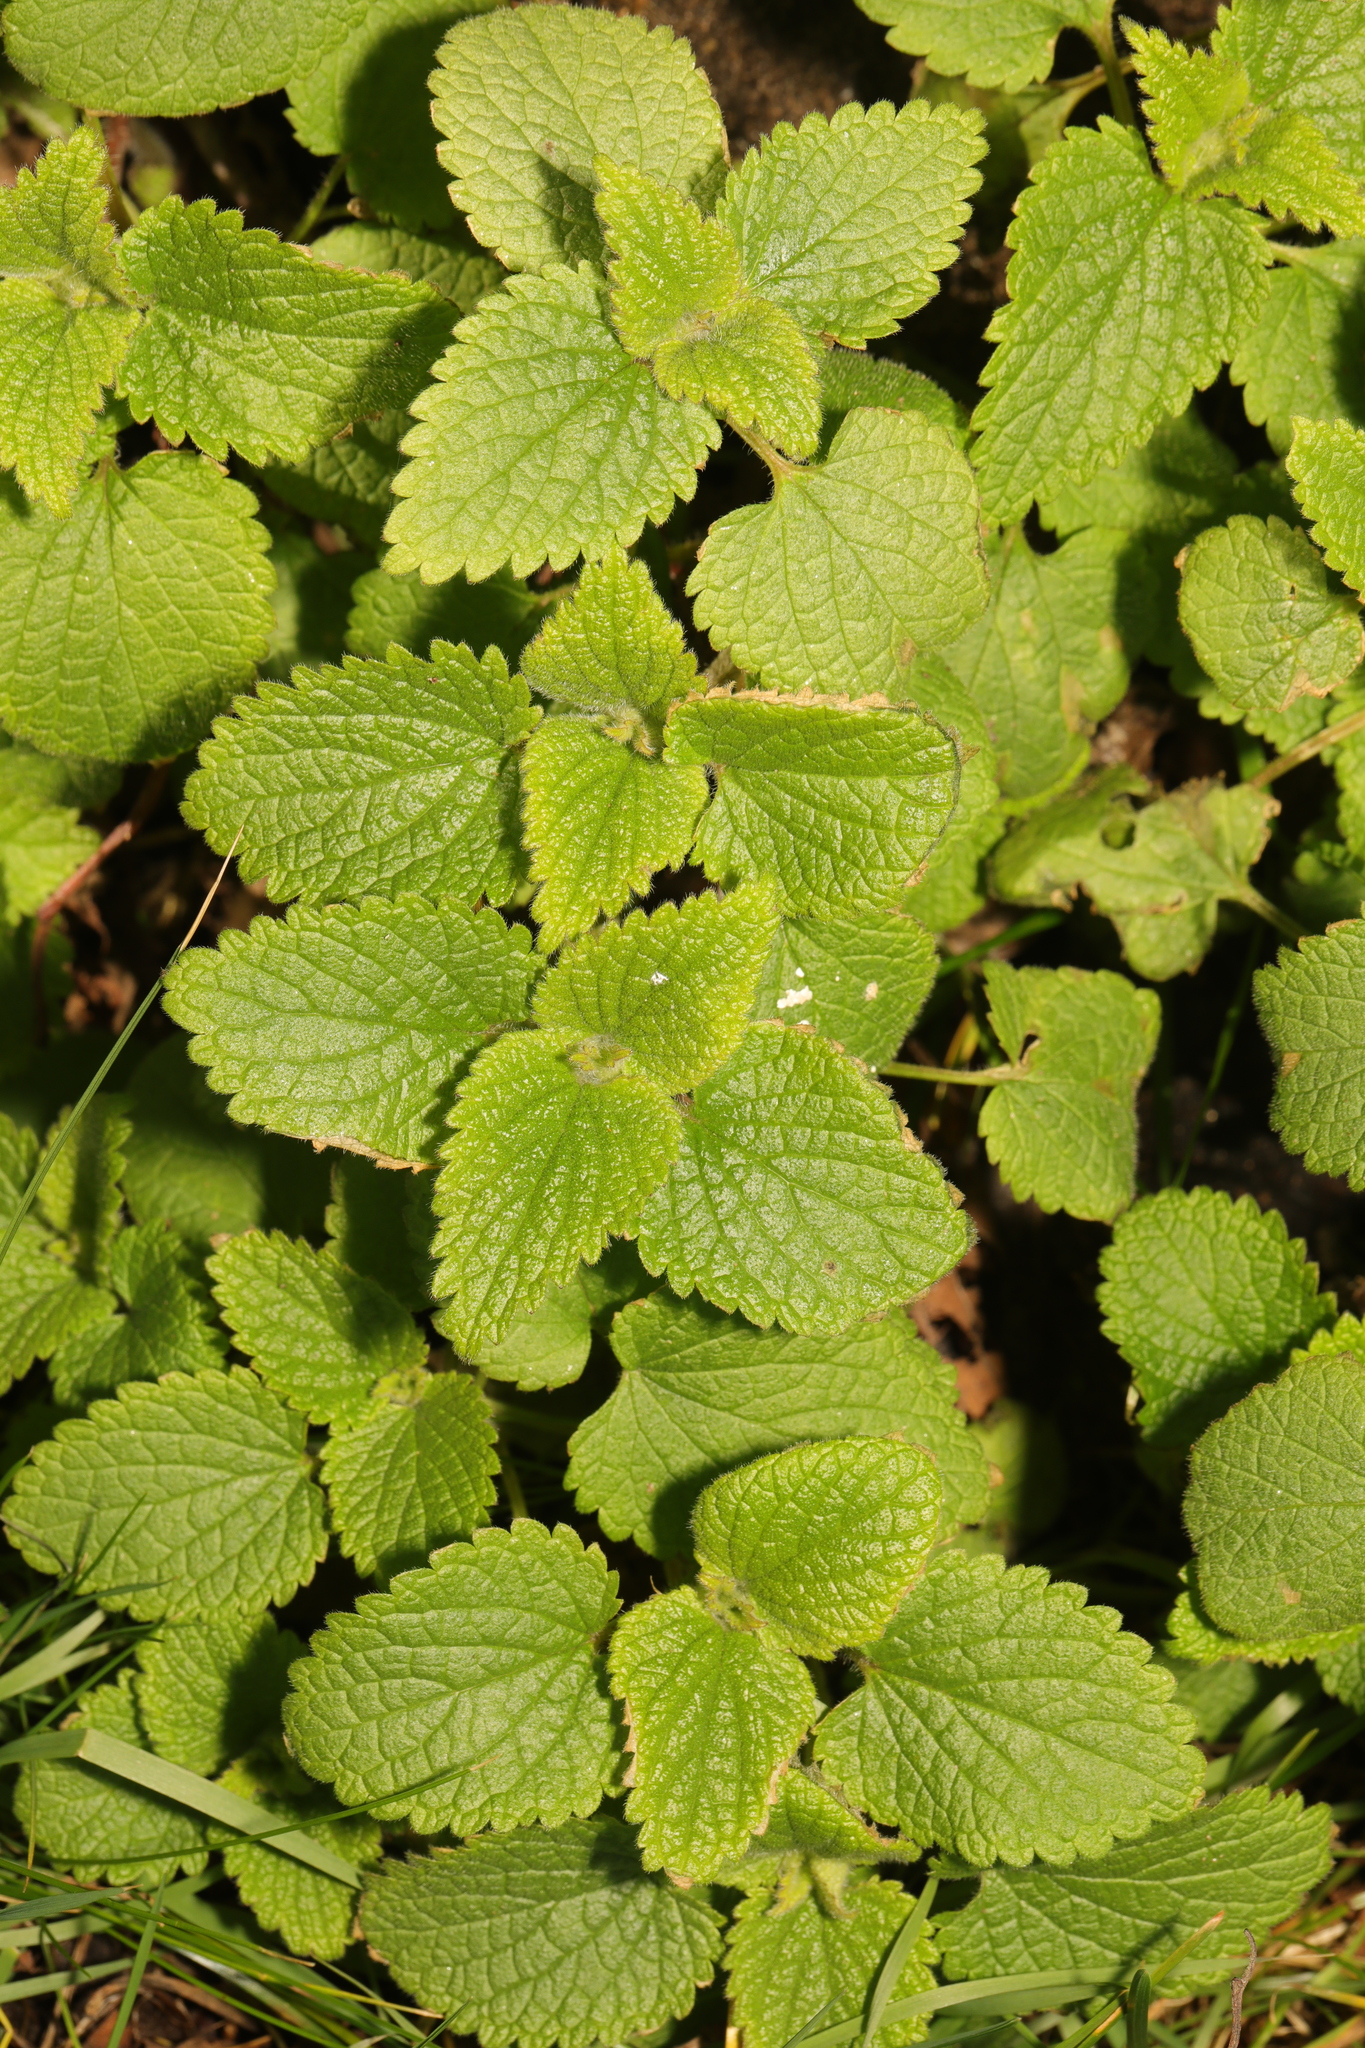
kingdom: Plantae
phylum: Tracheophyta
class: Magnoliopsida
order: Lamiales
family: Lamiaceae
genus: Lamium
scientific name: Lamium purpureum
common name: Red dead-nettle
